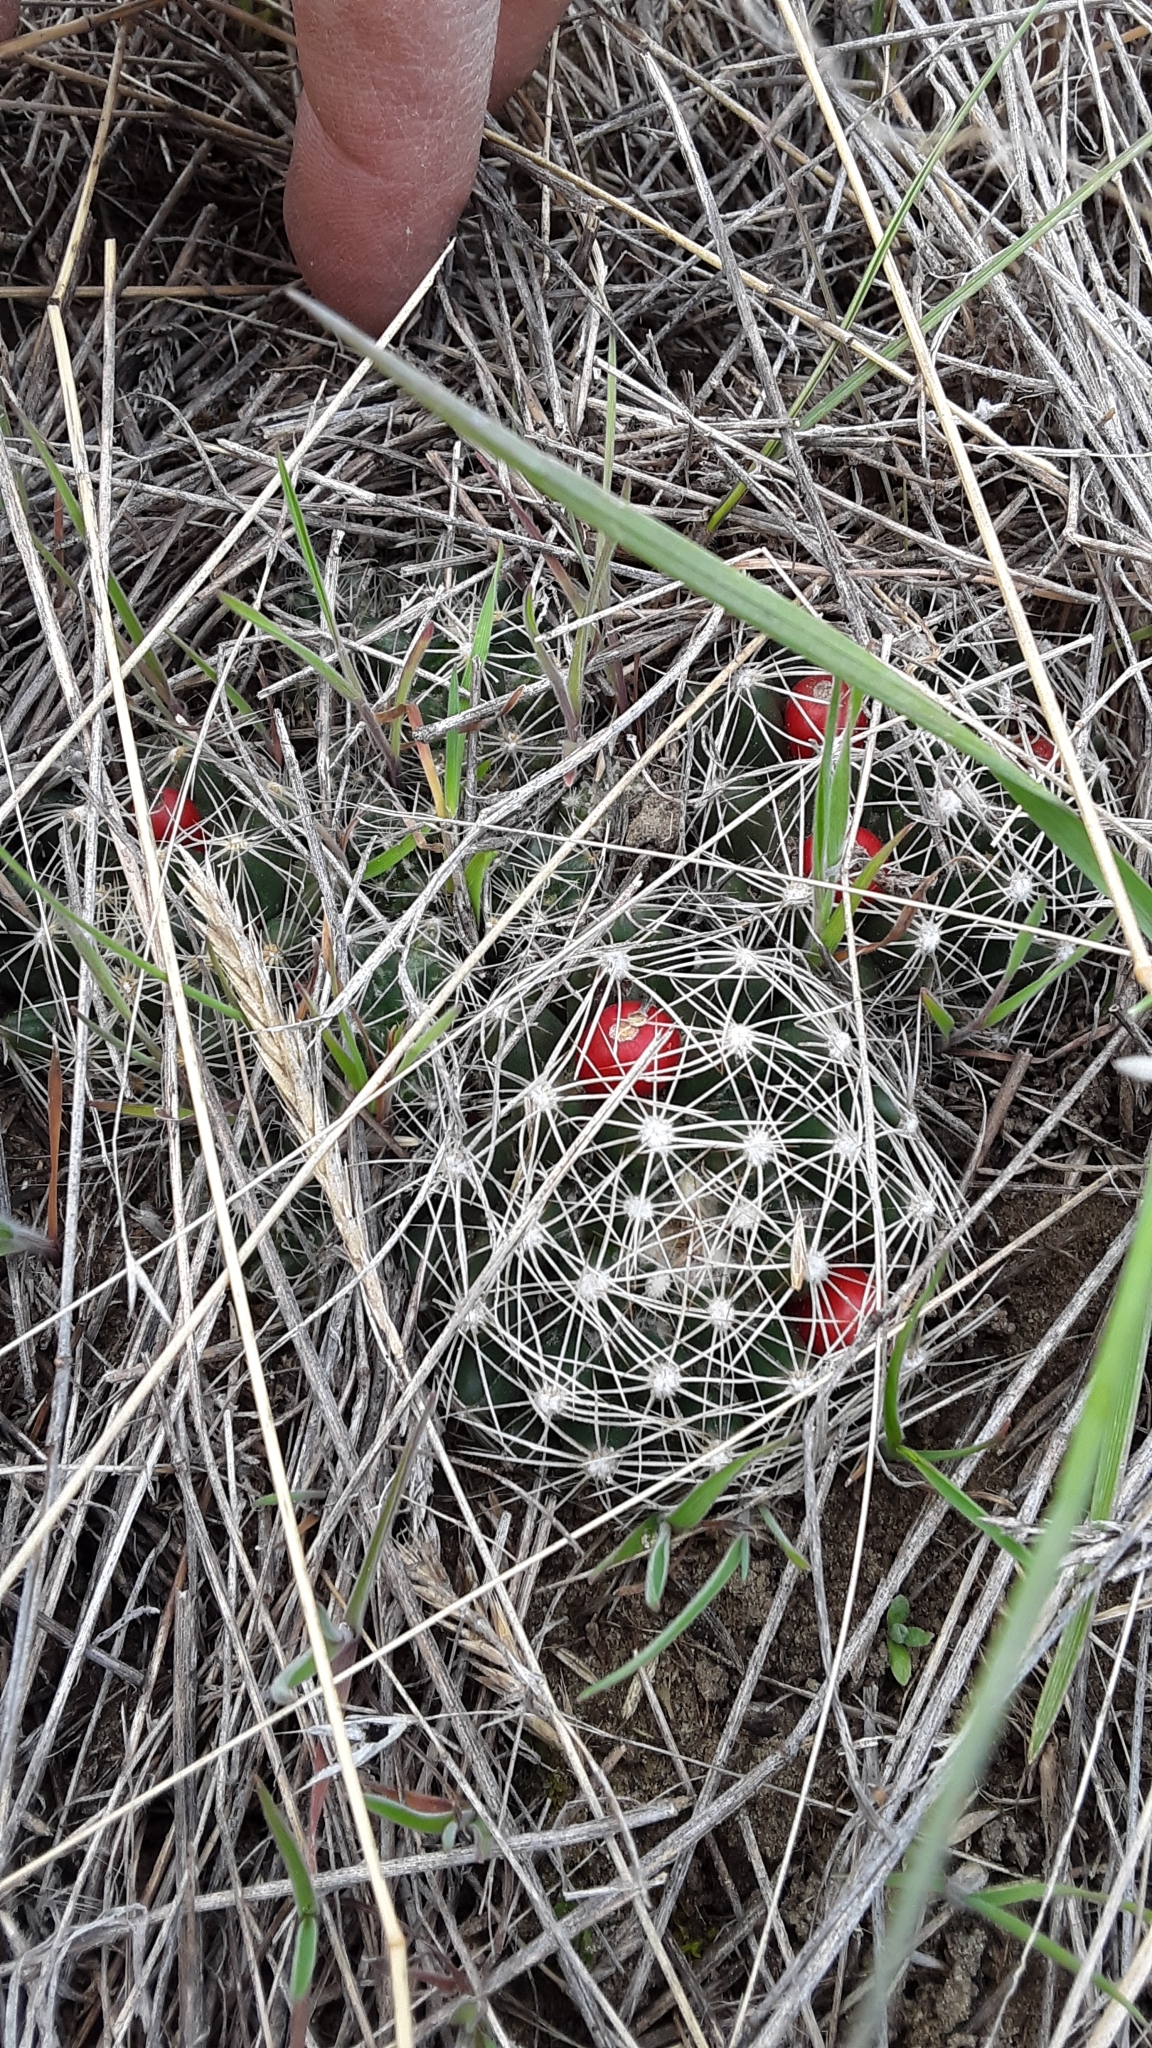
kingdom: Plantae
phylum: Tracheophyta
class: Magnoliopsida
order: Caryophyllales
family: Cactaceae
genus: Pelecyphora
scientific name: Pelecyphora missouriensis
